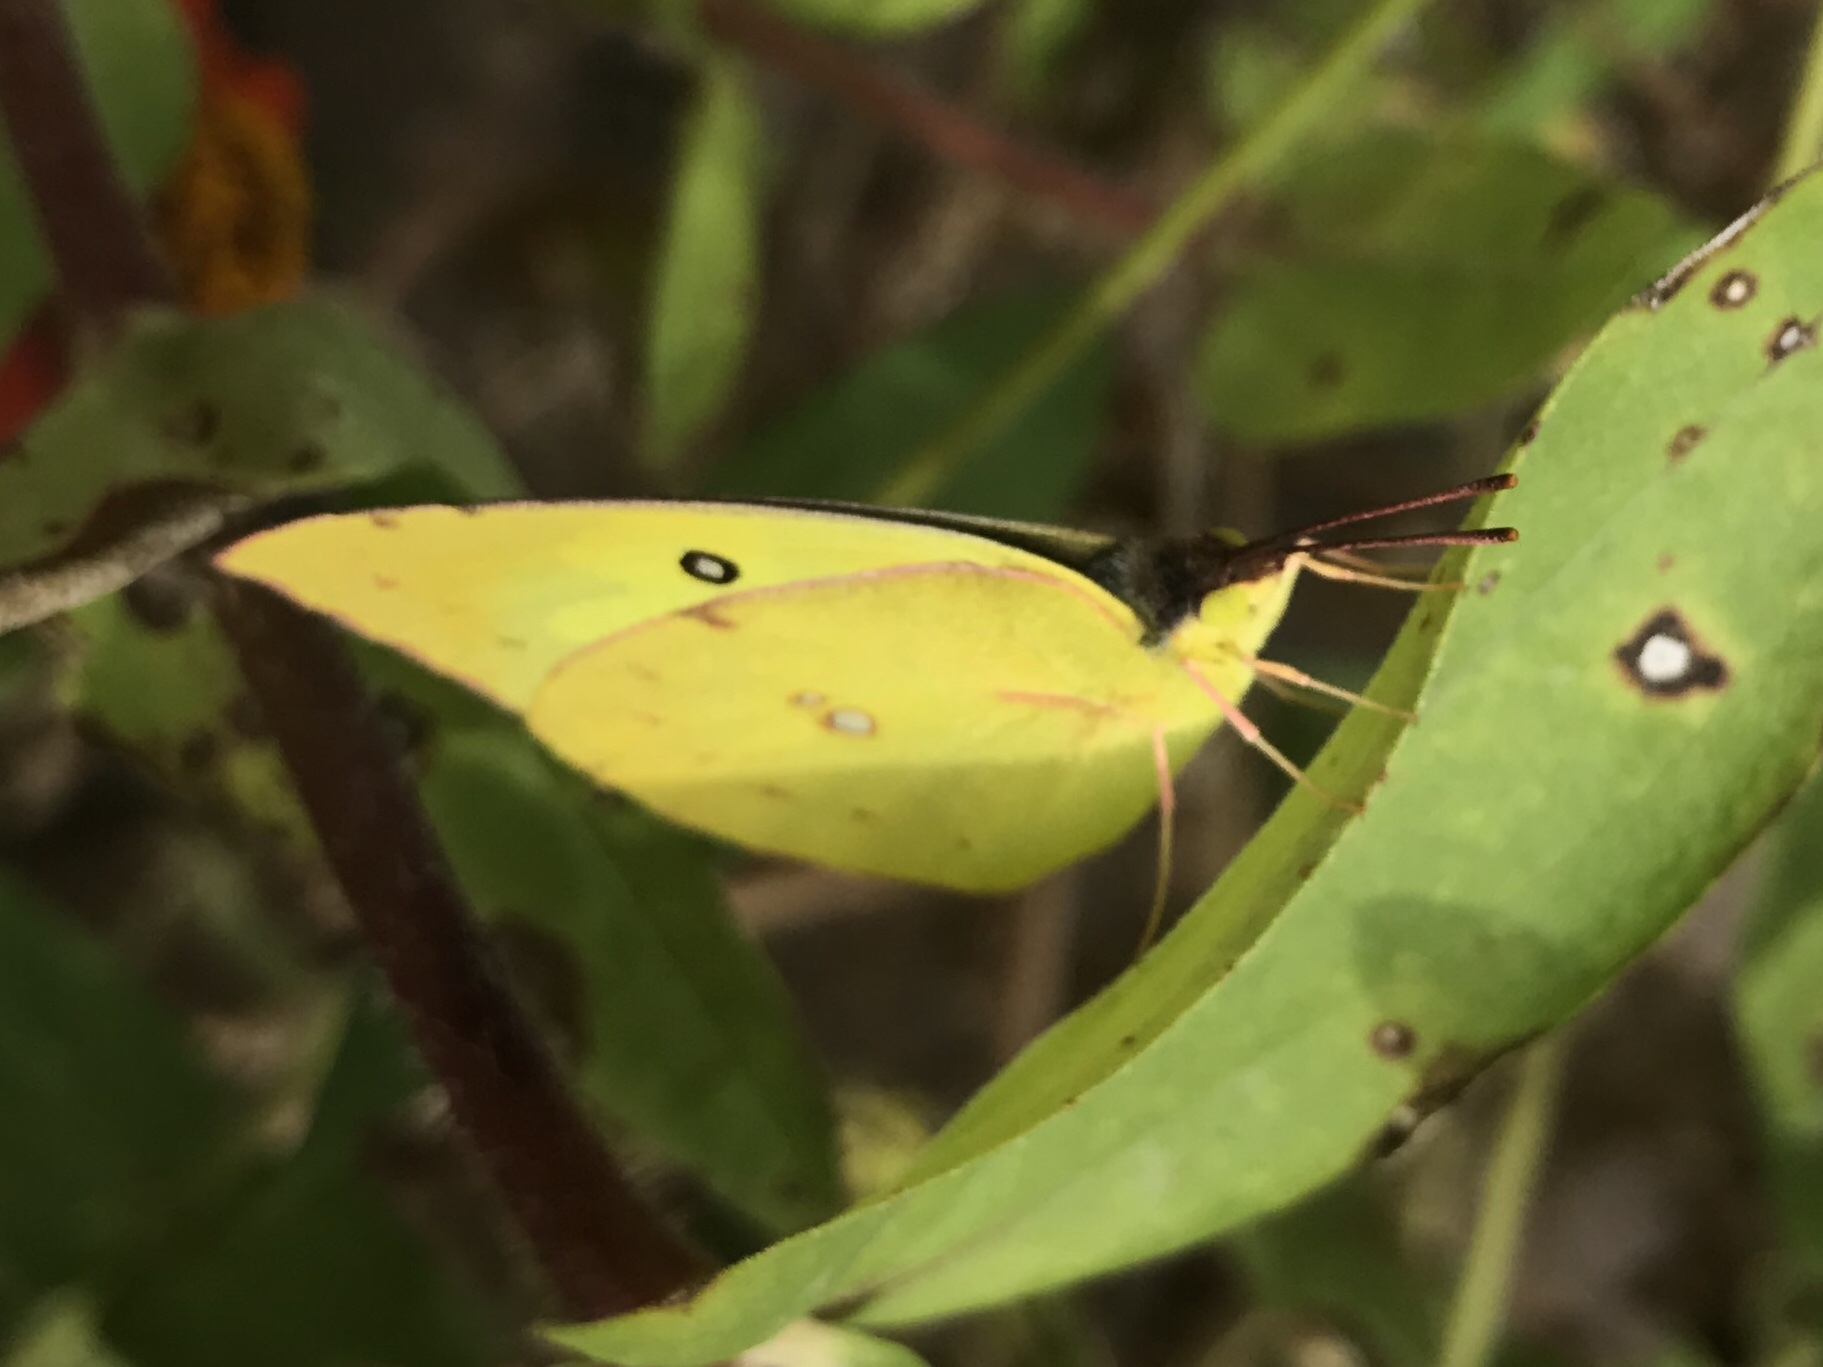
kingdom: Animalia
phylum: Arthropoda
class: Insecta
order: Lepidoptera
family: Pieridae
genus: Zerene
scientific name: Zerene cesonia
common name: Southern dogface
